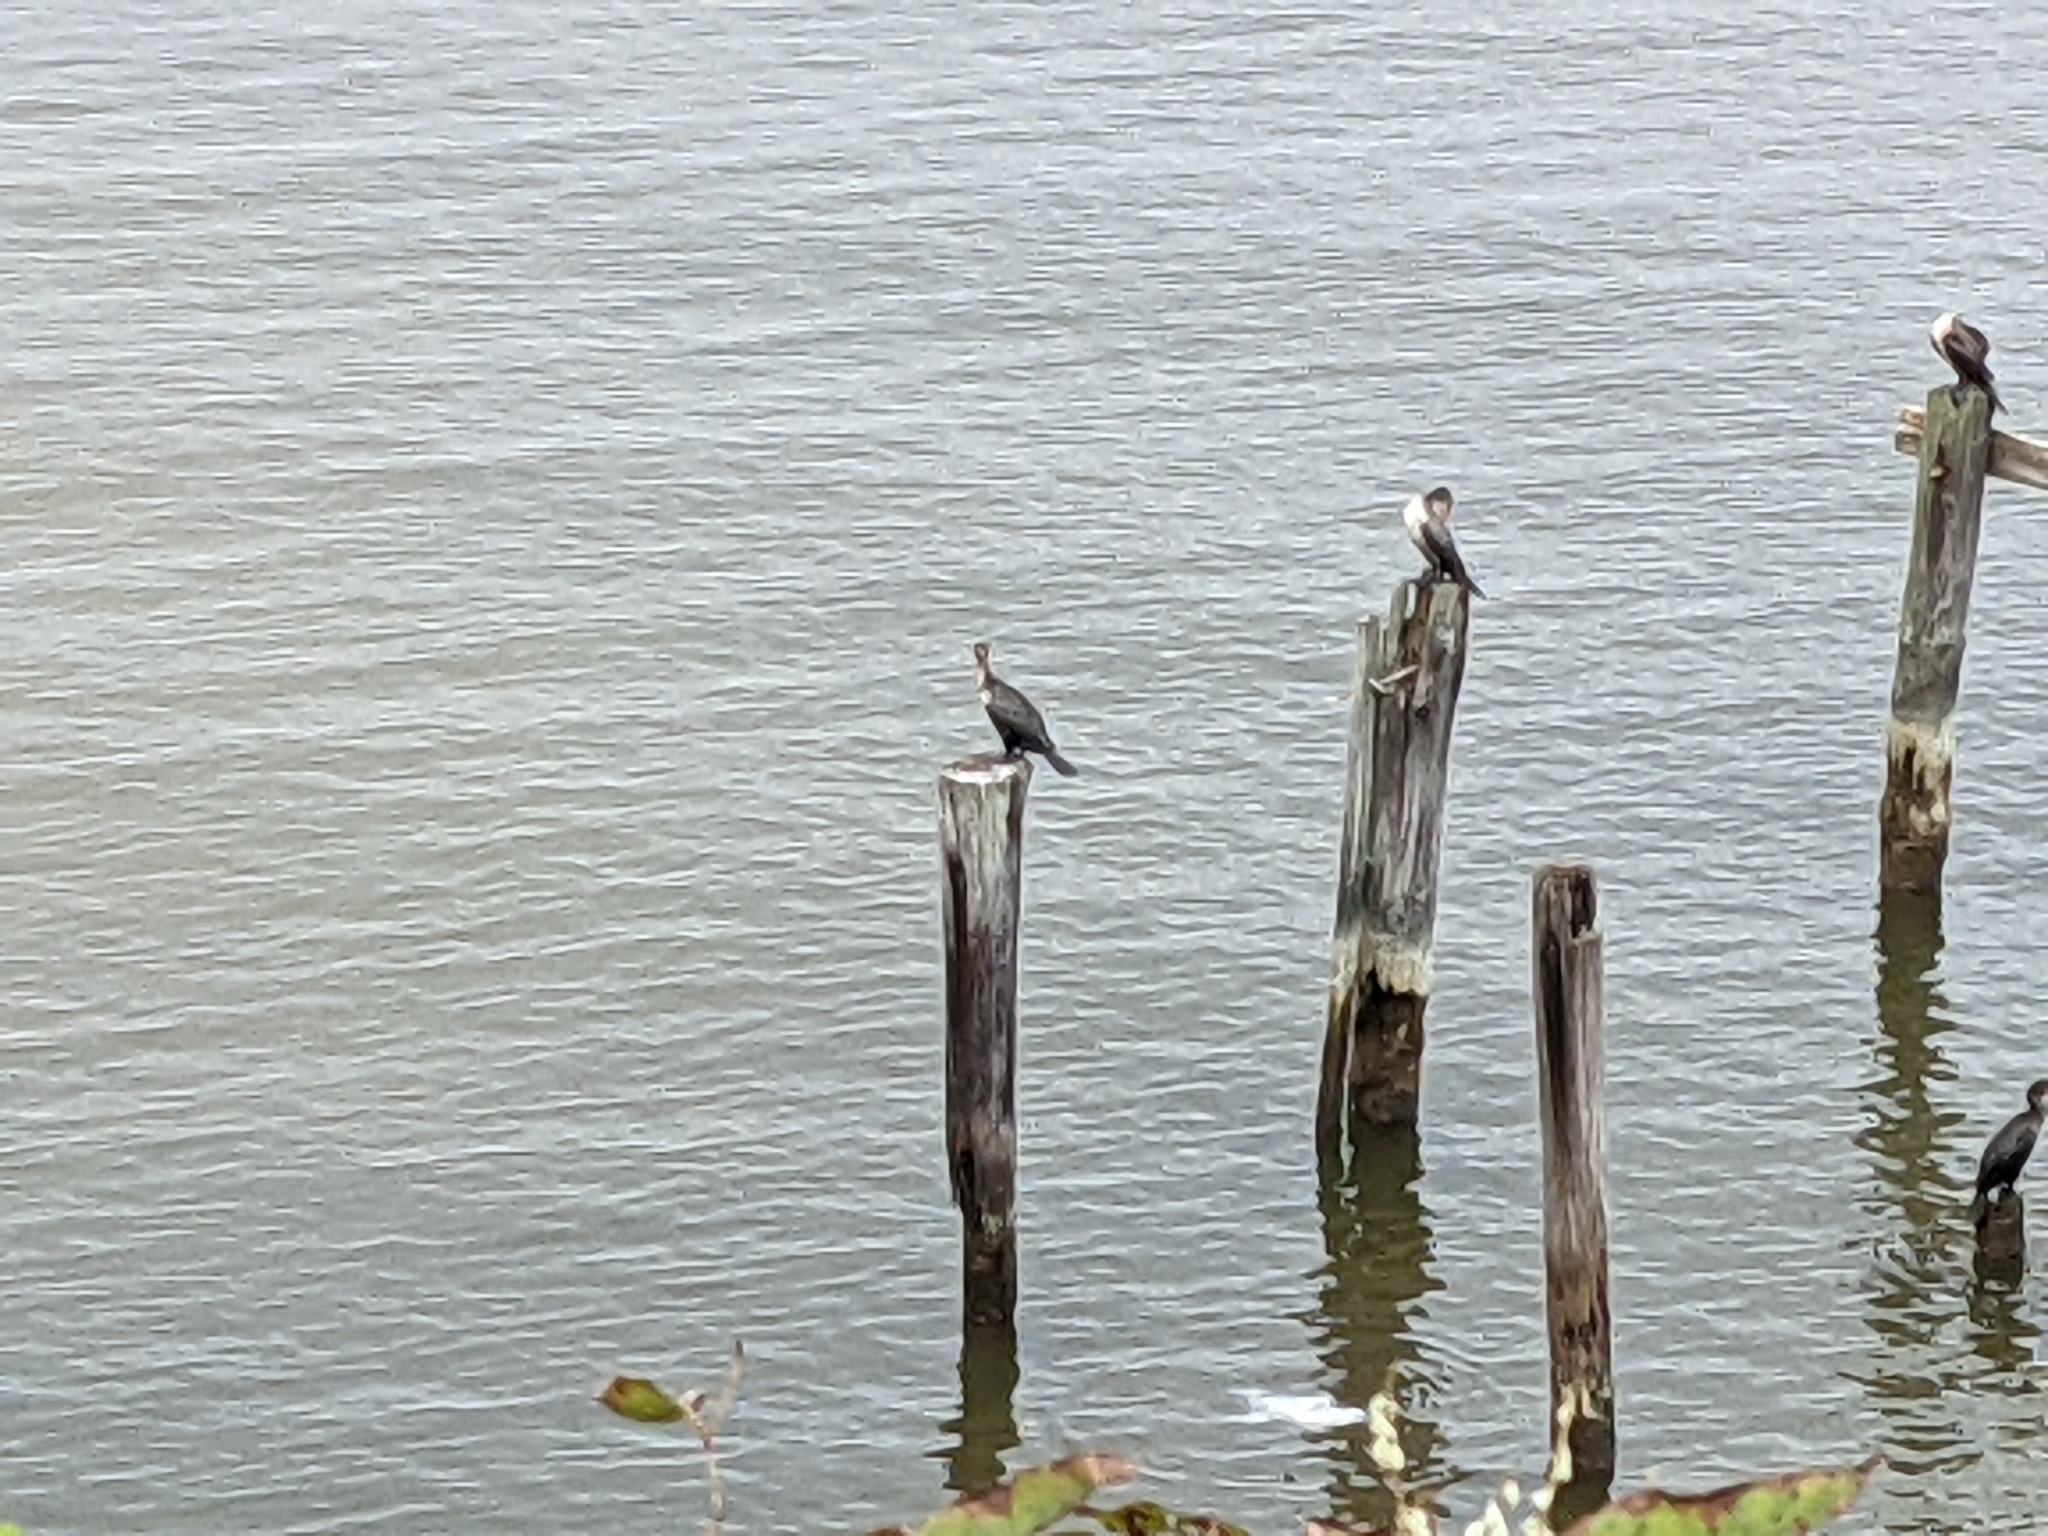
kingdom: Animalia
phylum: Chordata
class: Aves
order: Suliformes
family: Phalacrocoracidae
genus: Phalacrocorax
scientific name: Phalacrocorax auritus
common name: Double-crested cormorant
